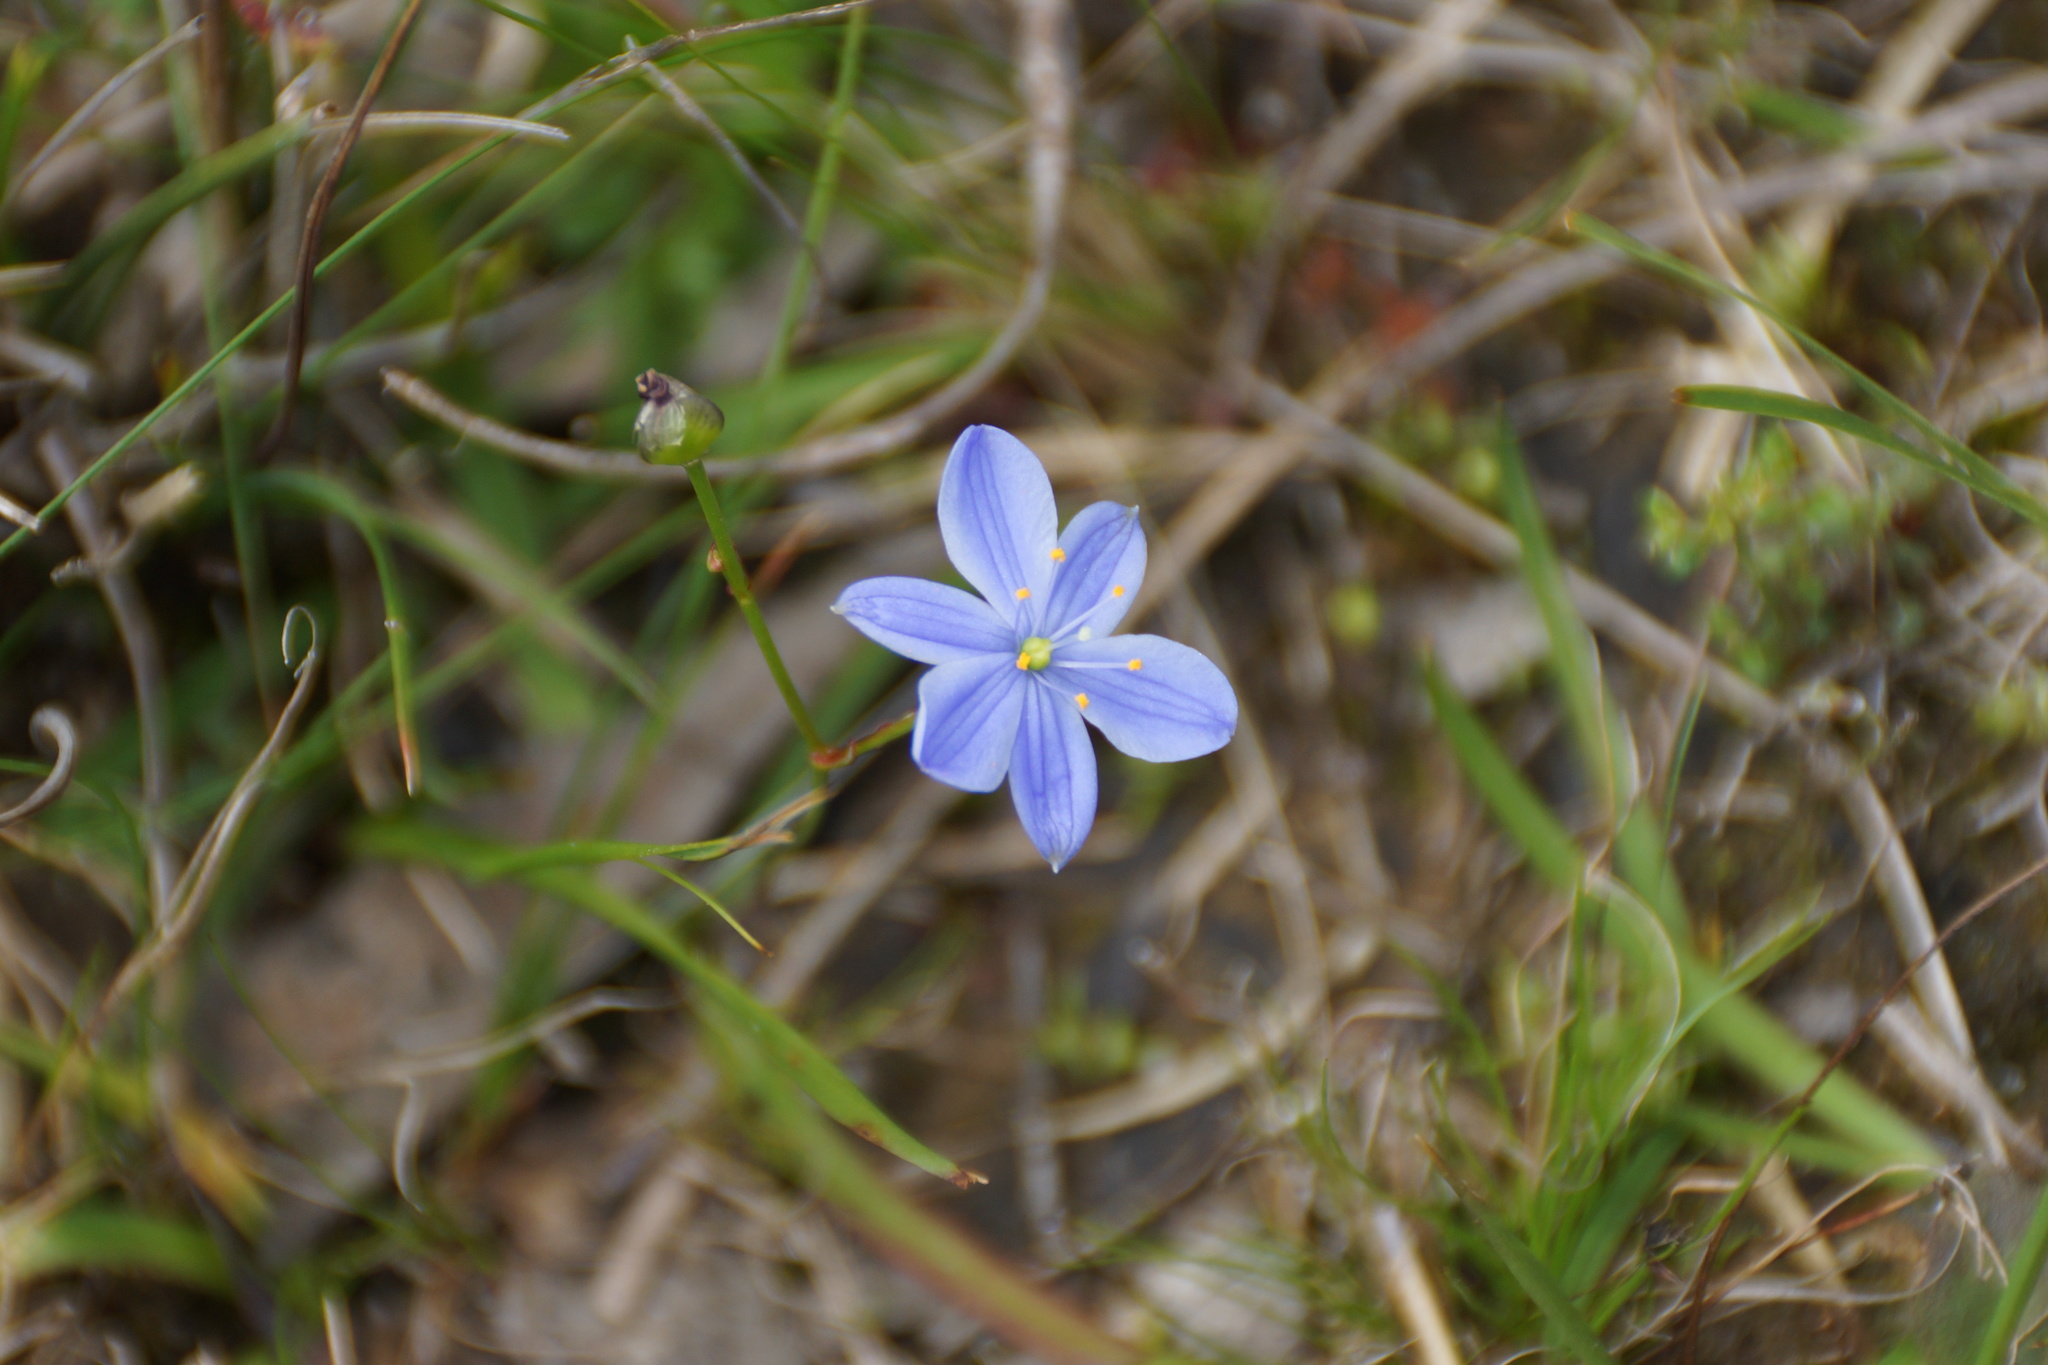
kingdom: Plantae
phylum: Tracheophyta
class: Liliopsida
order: Asparagales
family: Asphodelaceae
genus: Chamaescilla
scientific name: Chamaescilla corymbosa
